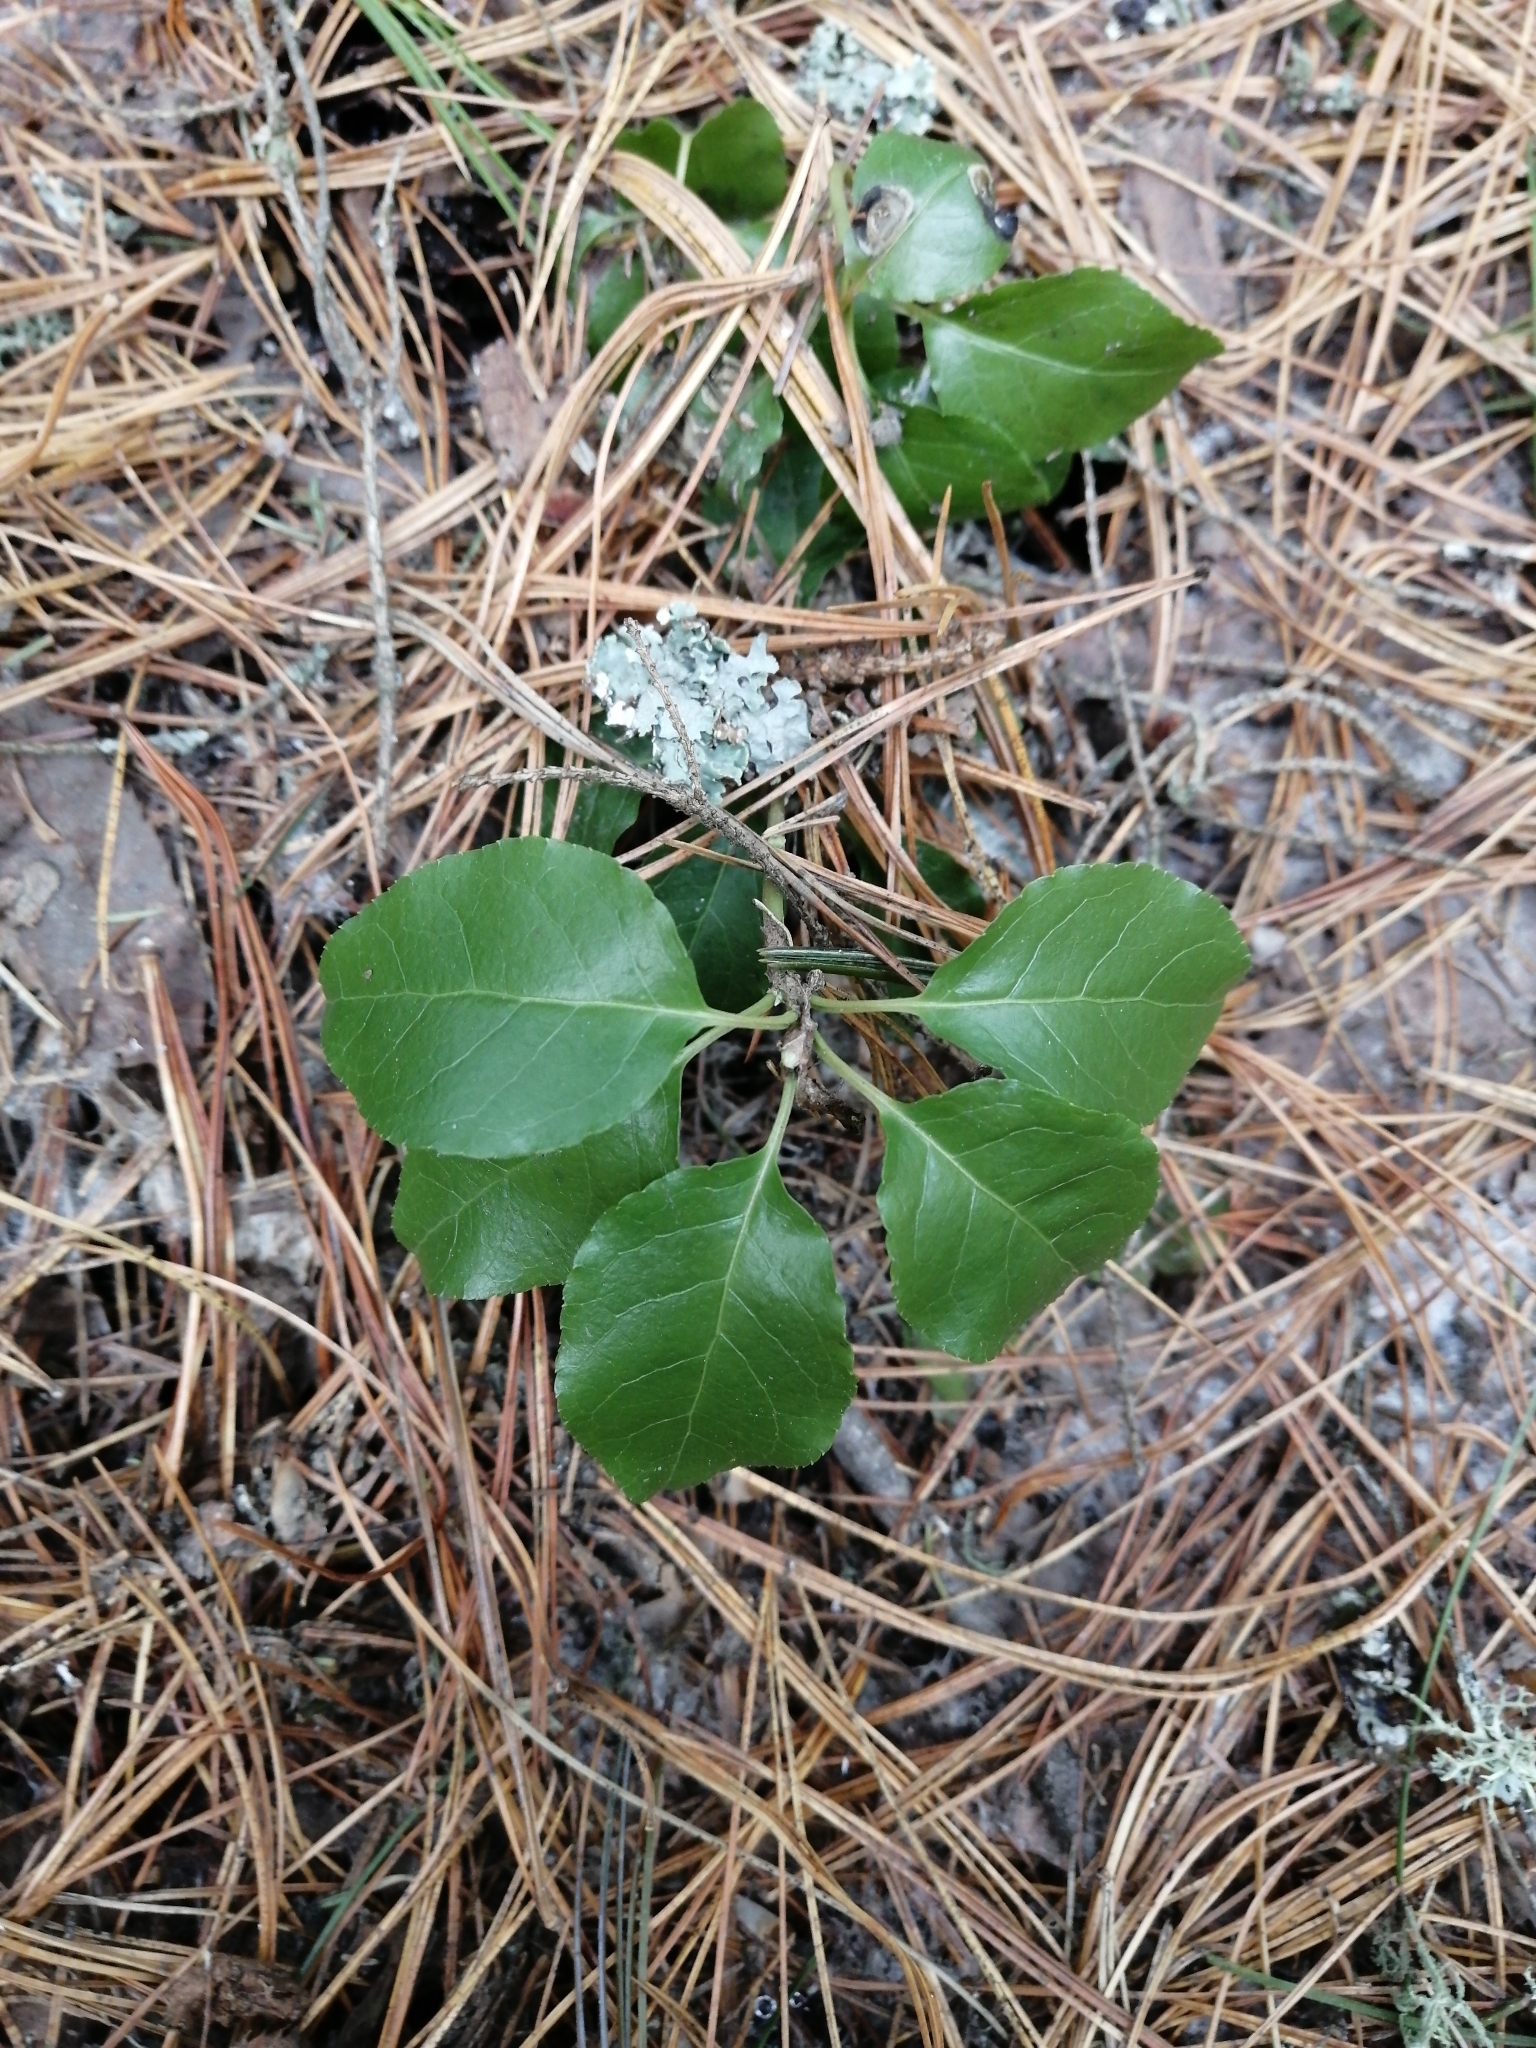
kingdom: Plantae
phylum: Tracheophyta
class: Magnoliopsida
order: Ericales
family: Ericaceae
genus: Orthilia
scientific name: Orthilia secunda
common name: One-sided orthilia
